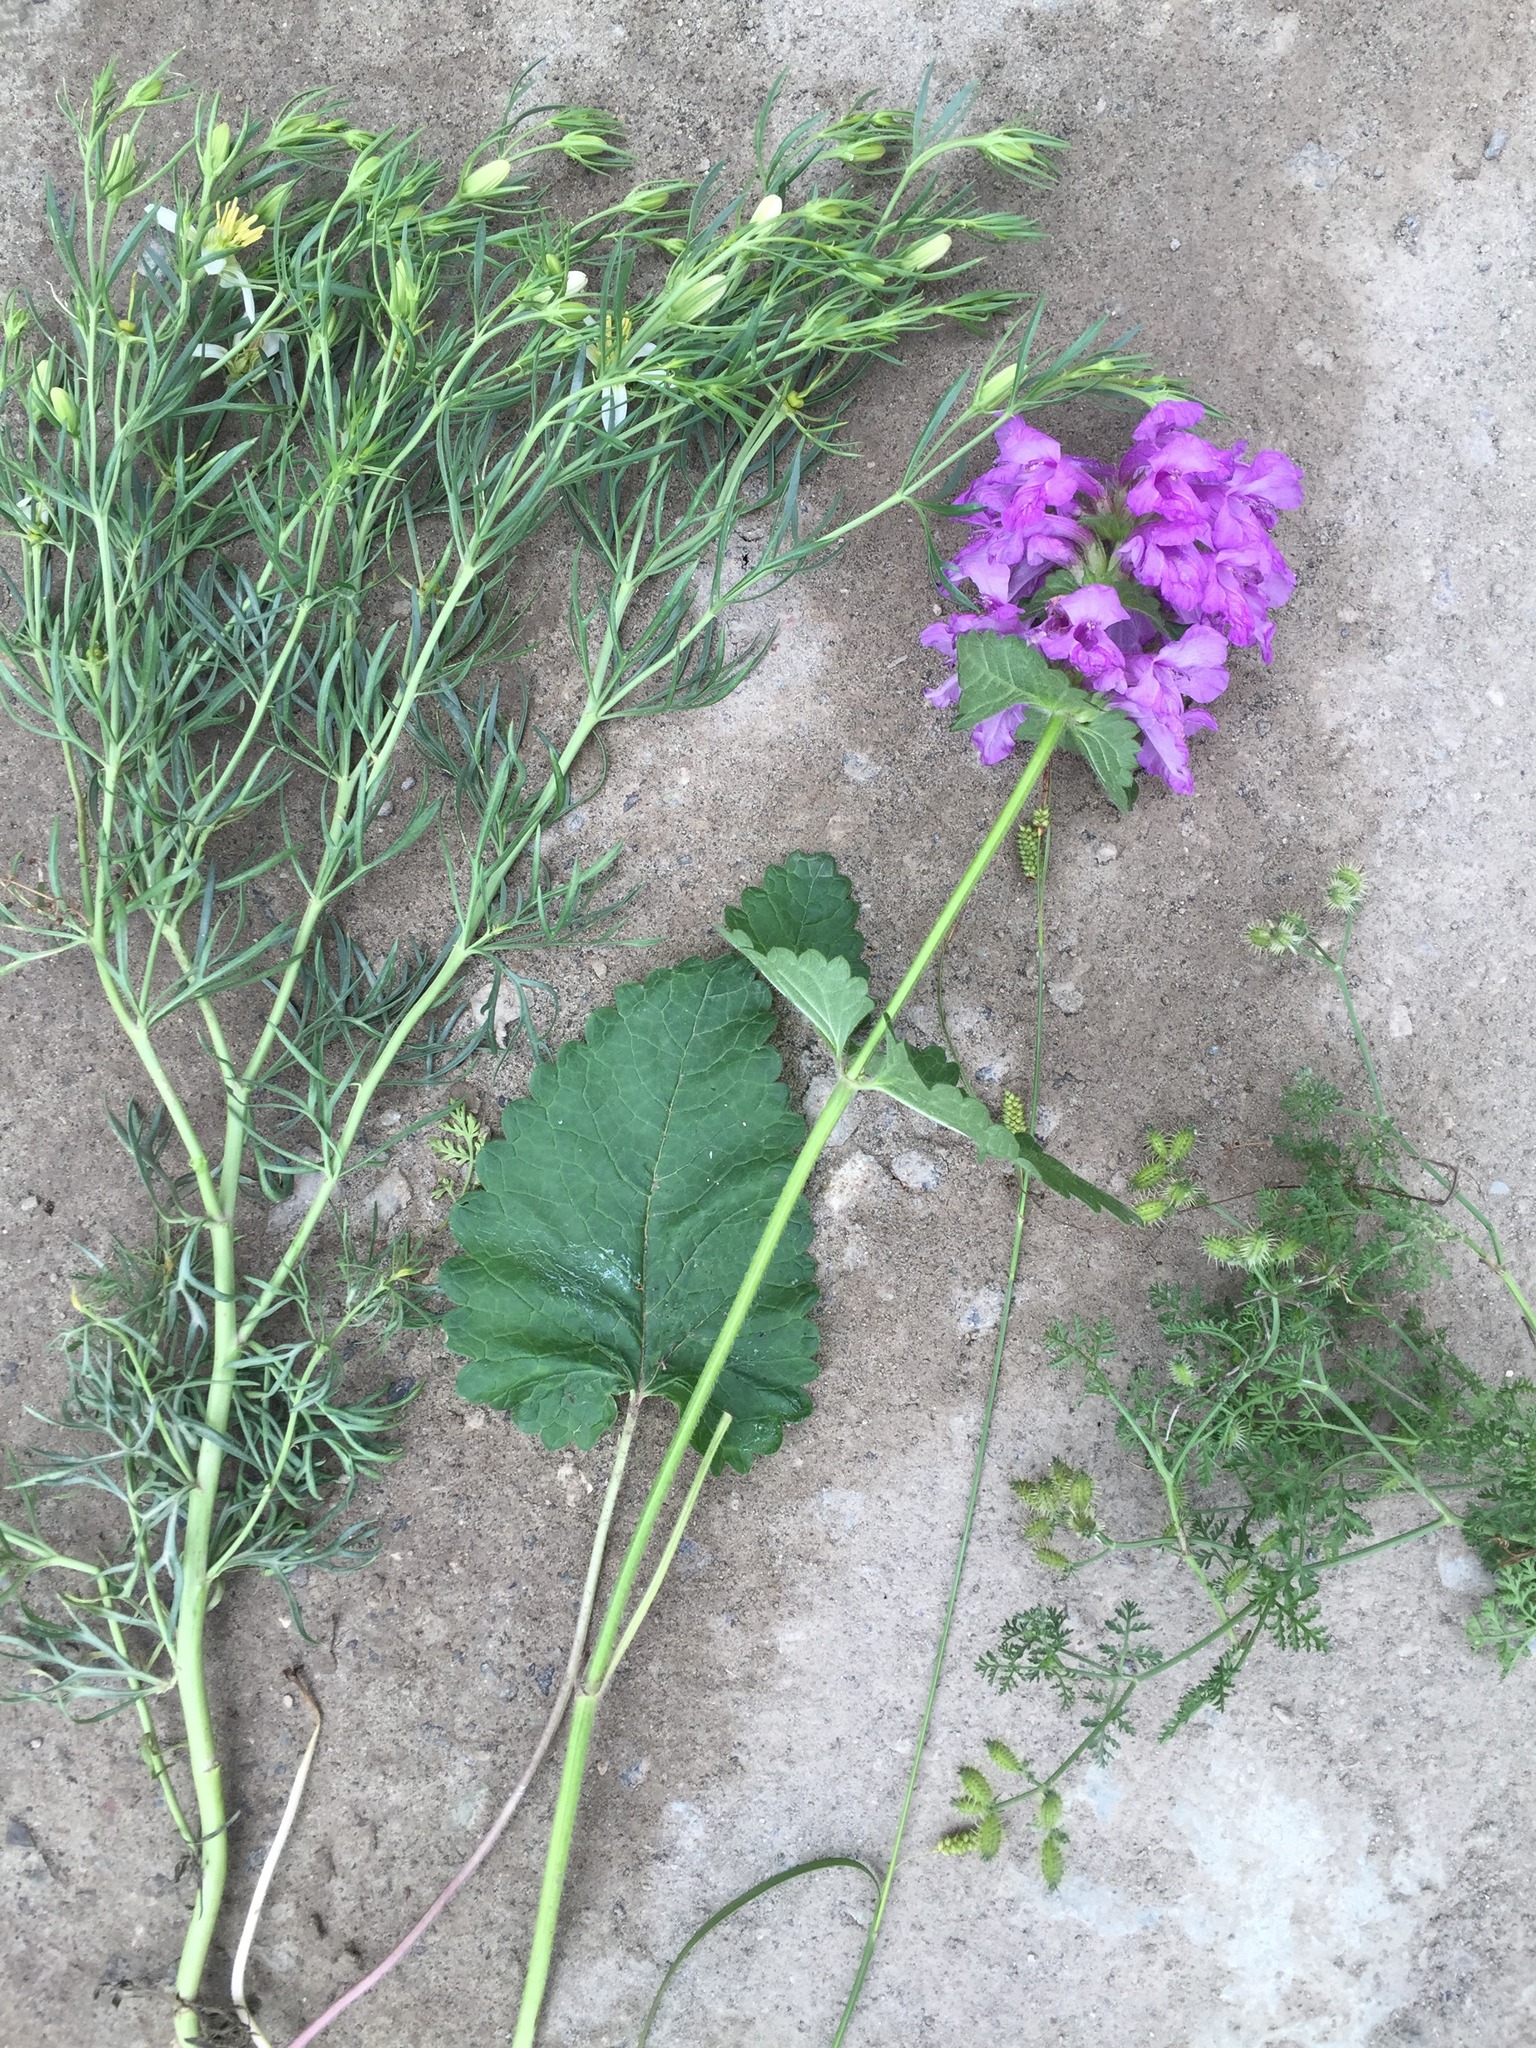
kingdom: Plantae
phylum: Tracheophyta
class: Magnoliopsida
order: Sapindales
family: Tetradiclidaceae
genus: Peganum
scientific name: Peganum harmala
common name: Harmal peganum
